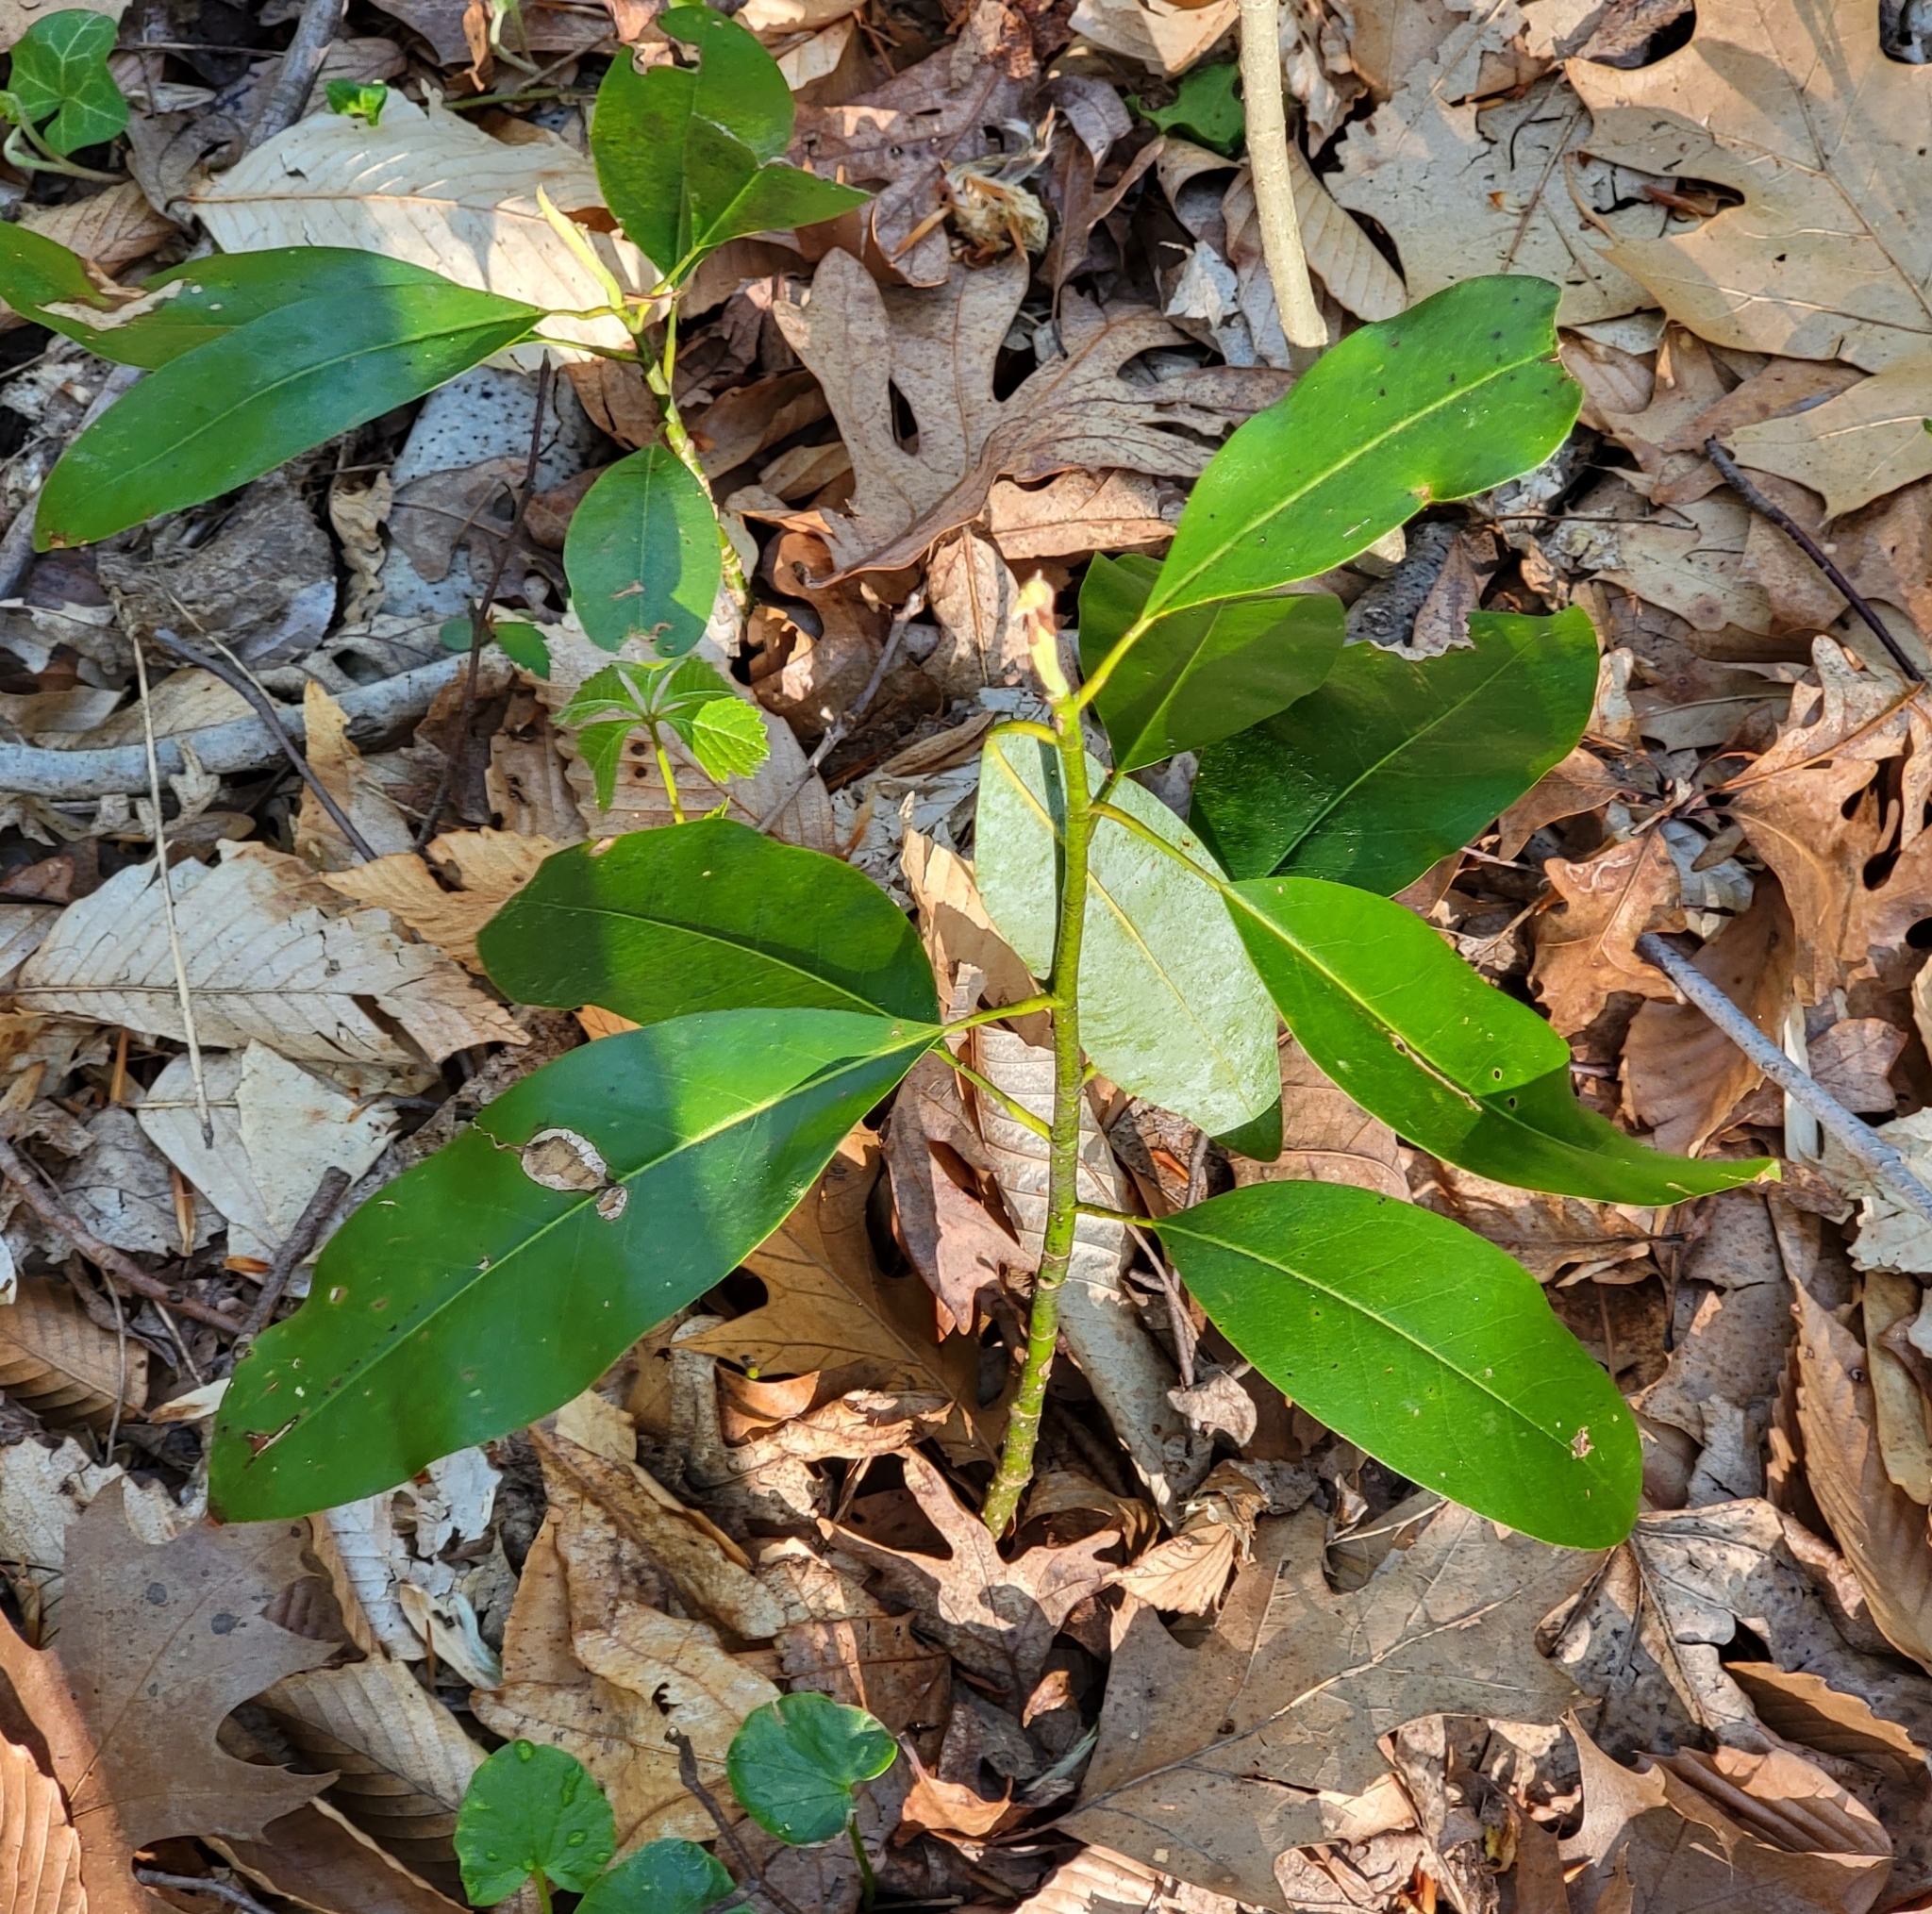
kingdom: Plantae
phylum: Tracheophyta
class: Magnoliopsida
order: Magnoliales
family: Magnoliaceae
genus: Magnolia
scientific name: Magnolia virginiana
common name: Swamp bay
